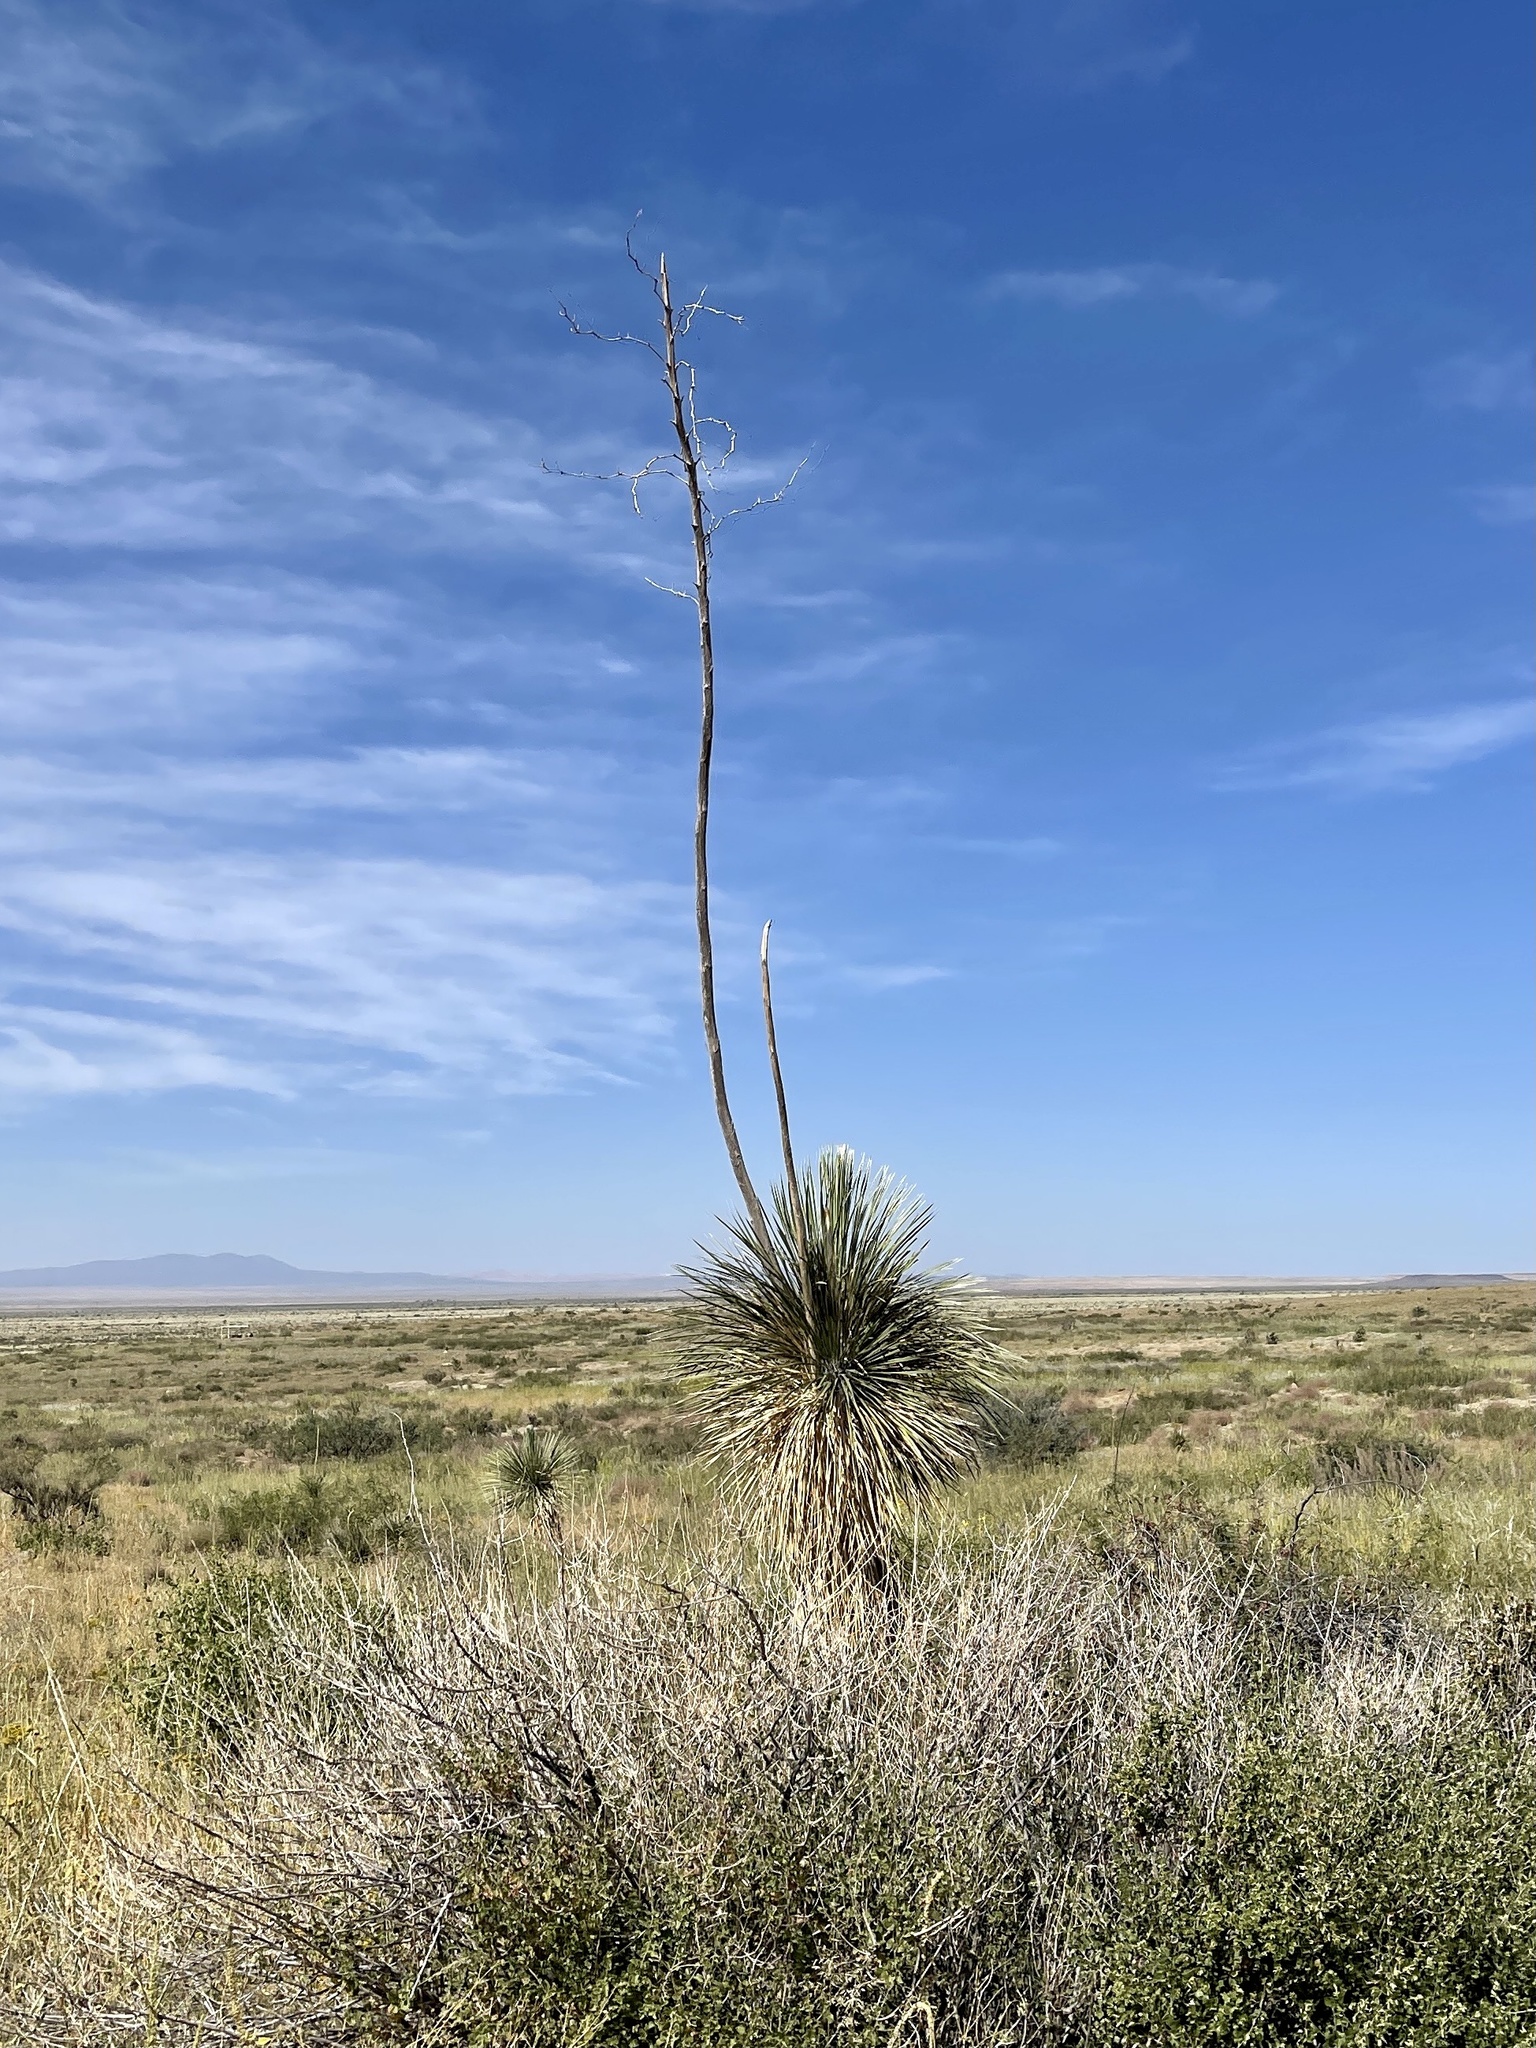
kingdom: Plantae
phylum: Tracheophyta
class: Liliopsida
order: Asparagales
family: Asparagaceae
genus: Yucca
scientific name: Yucca elata
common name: Palmella
